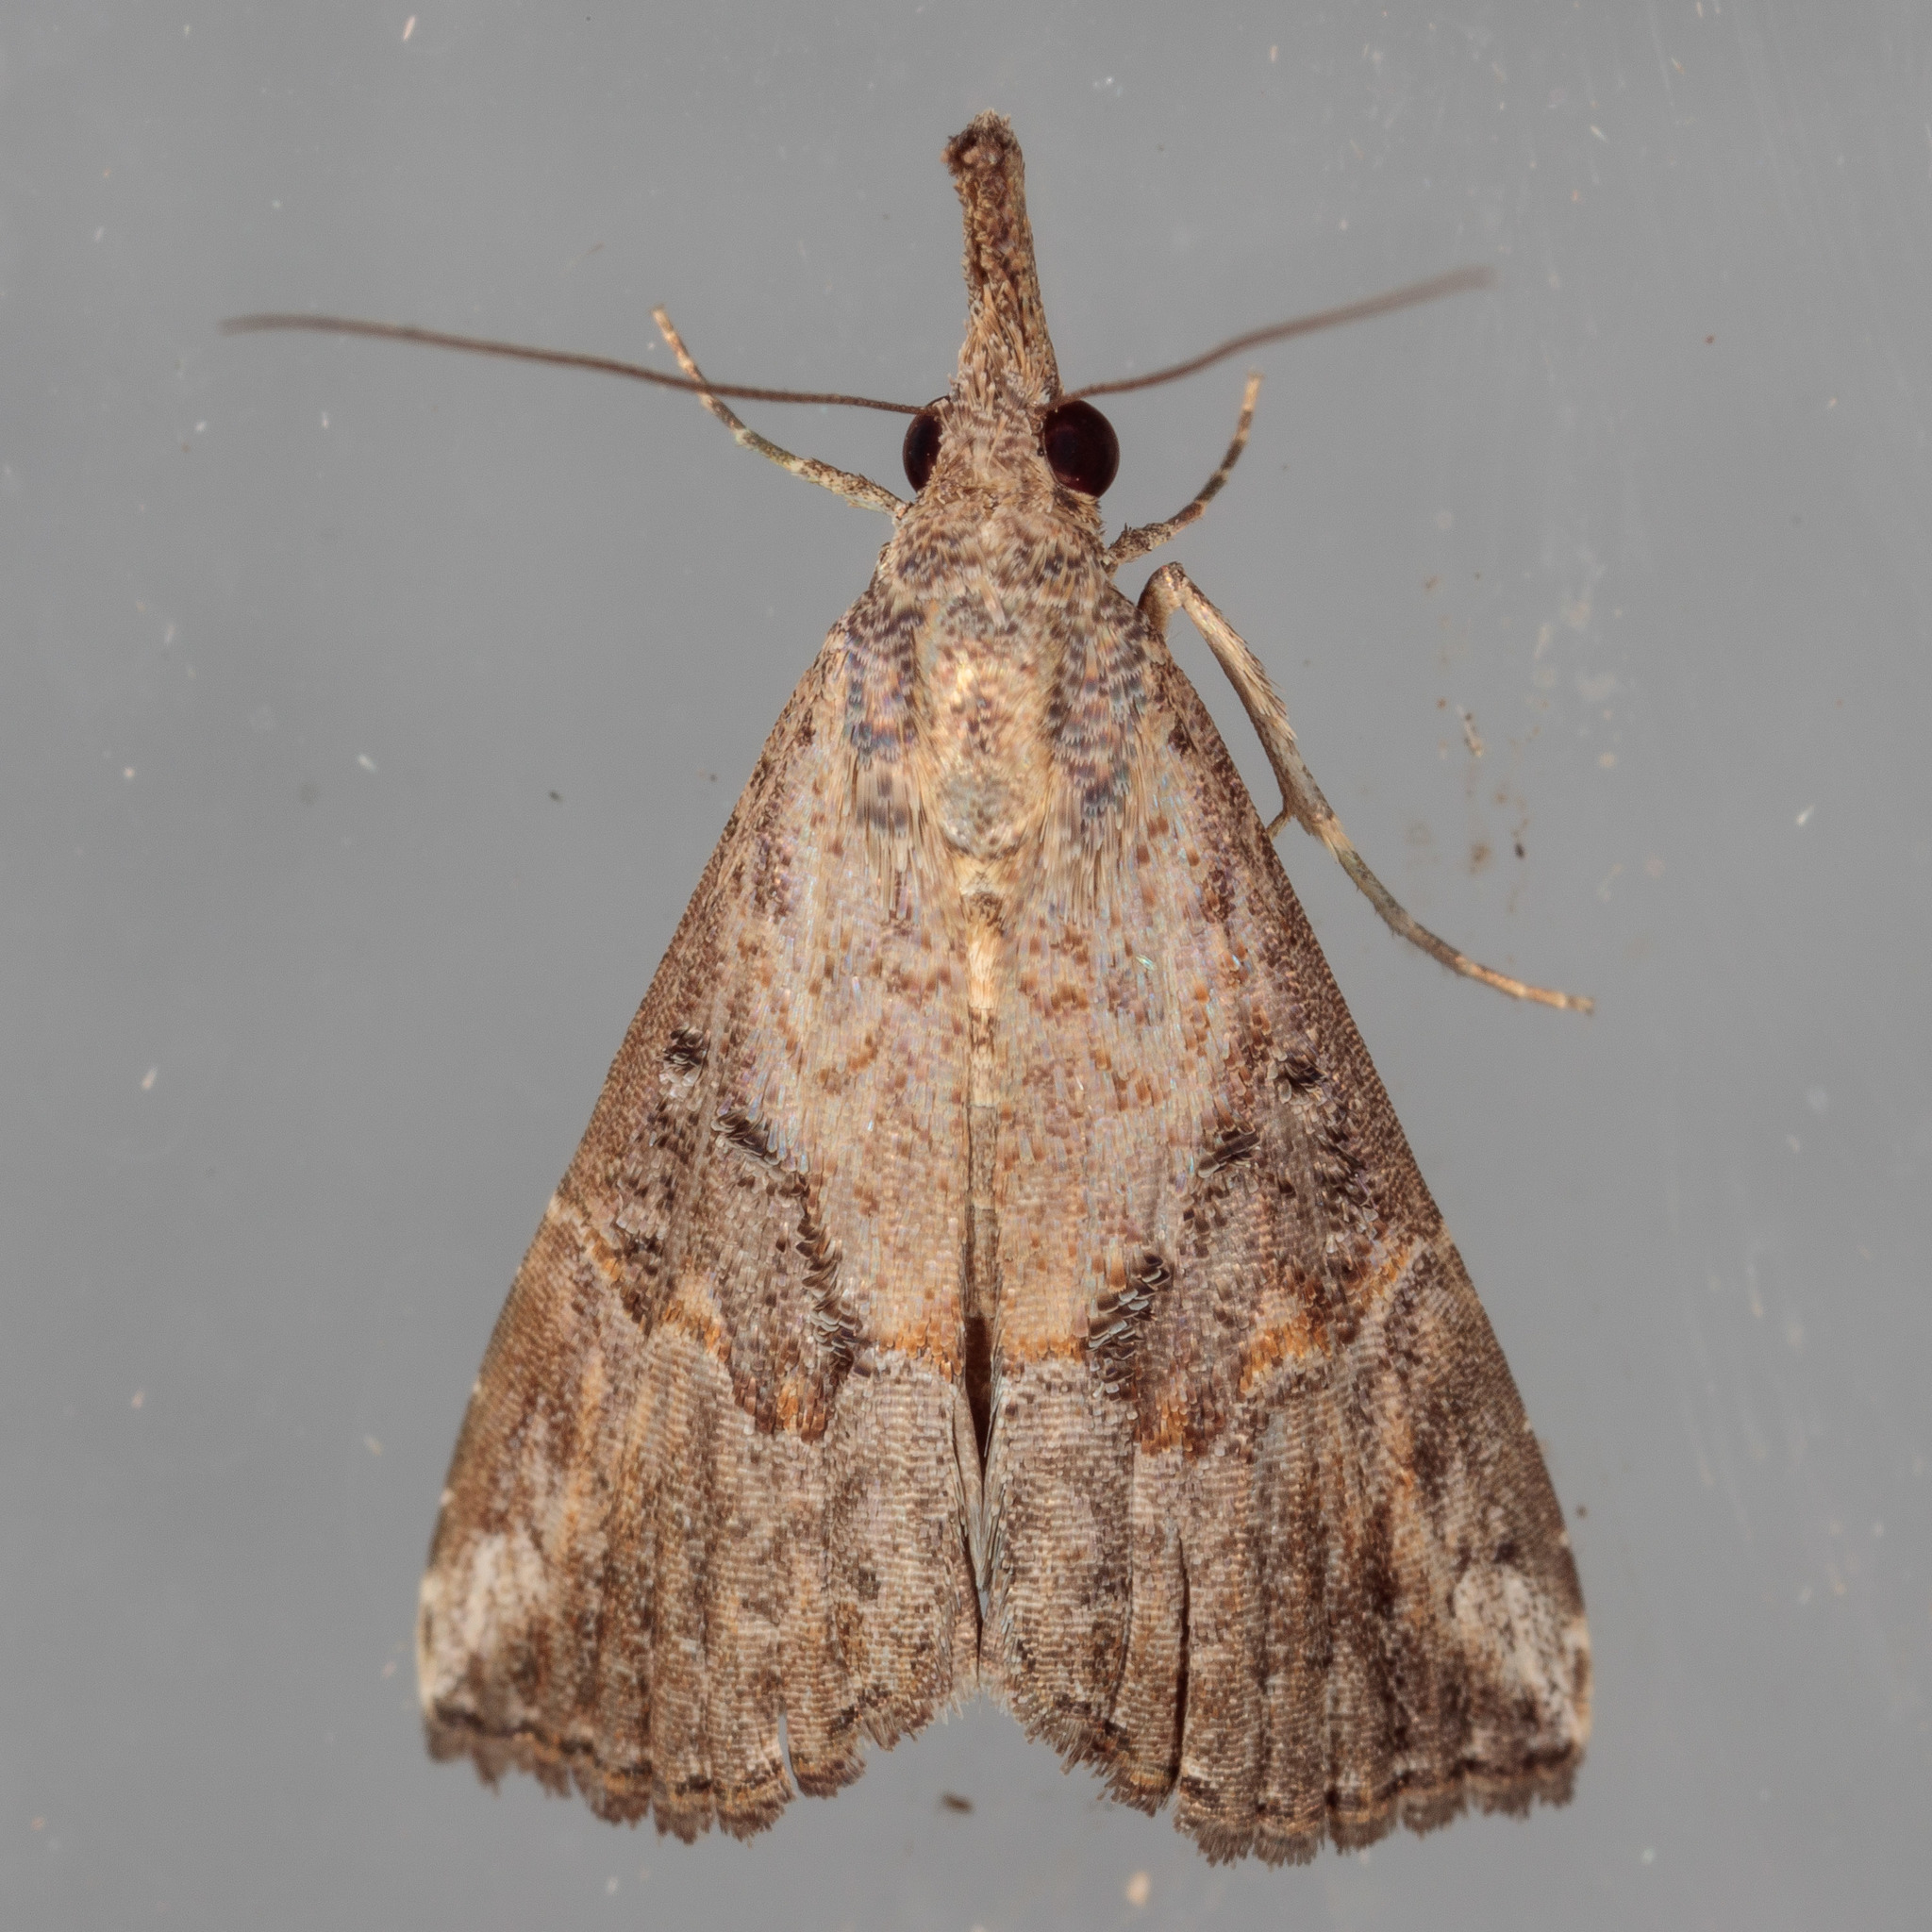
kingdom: Animalia
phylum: Arthropoda
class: Insecta
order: Lepidoptera
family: Erebidae
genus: Hypena
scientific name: Hypena minualis
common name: Sooty snout
